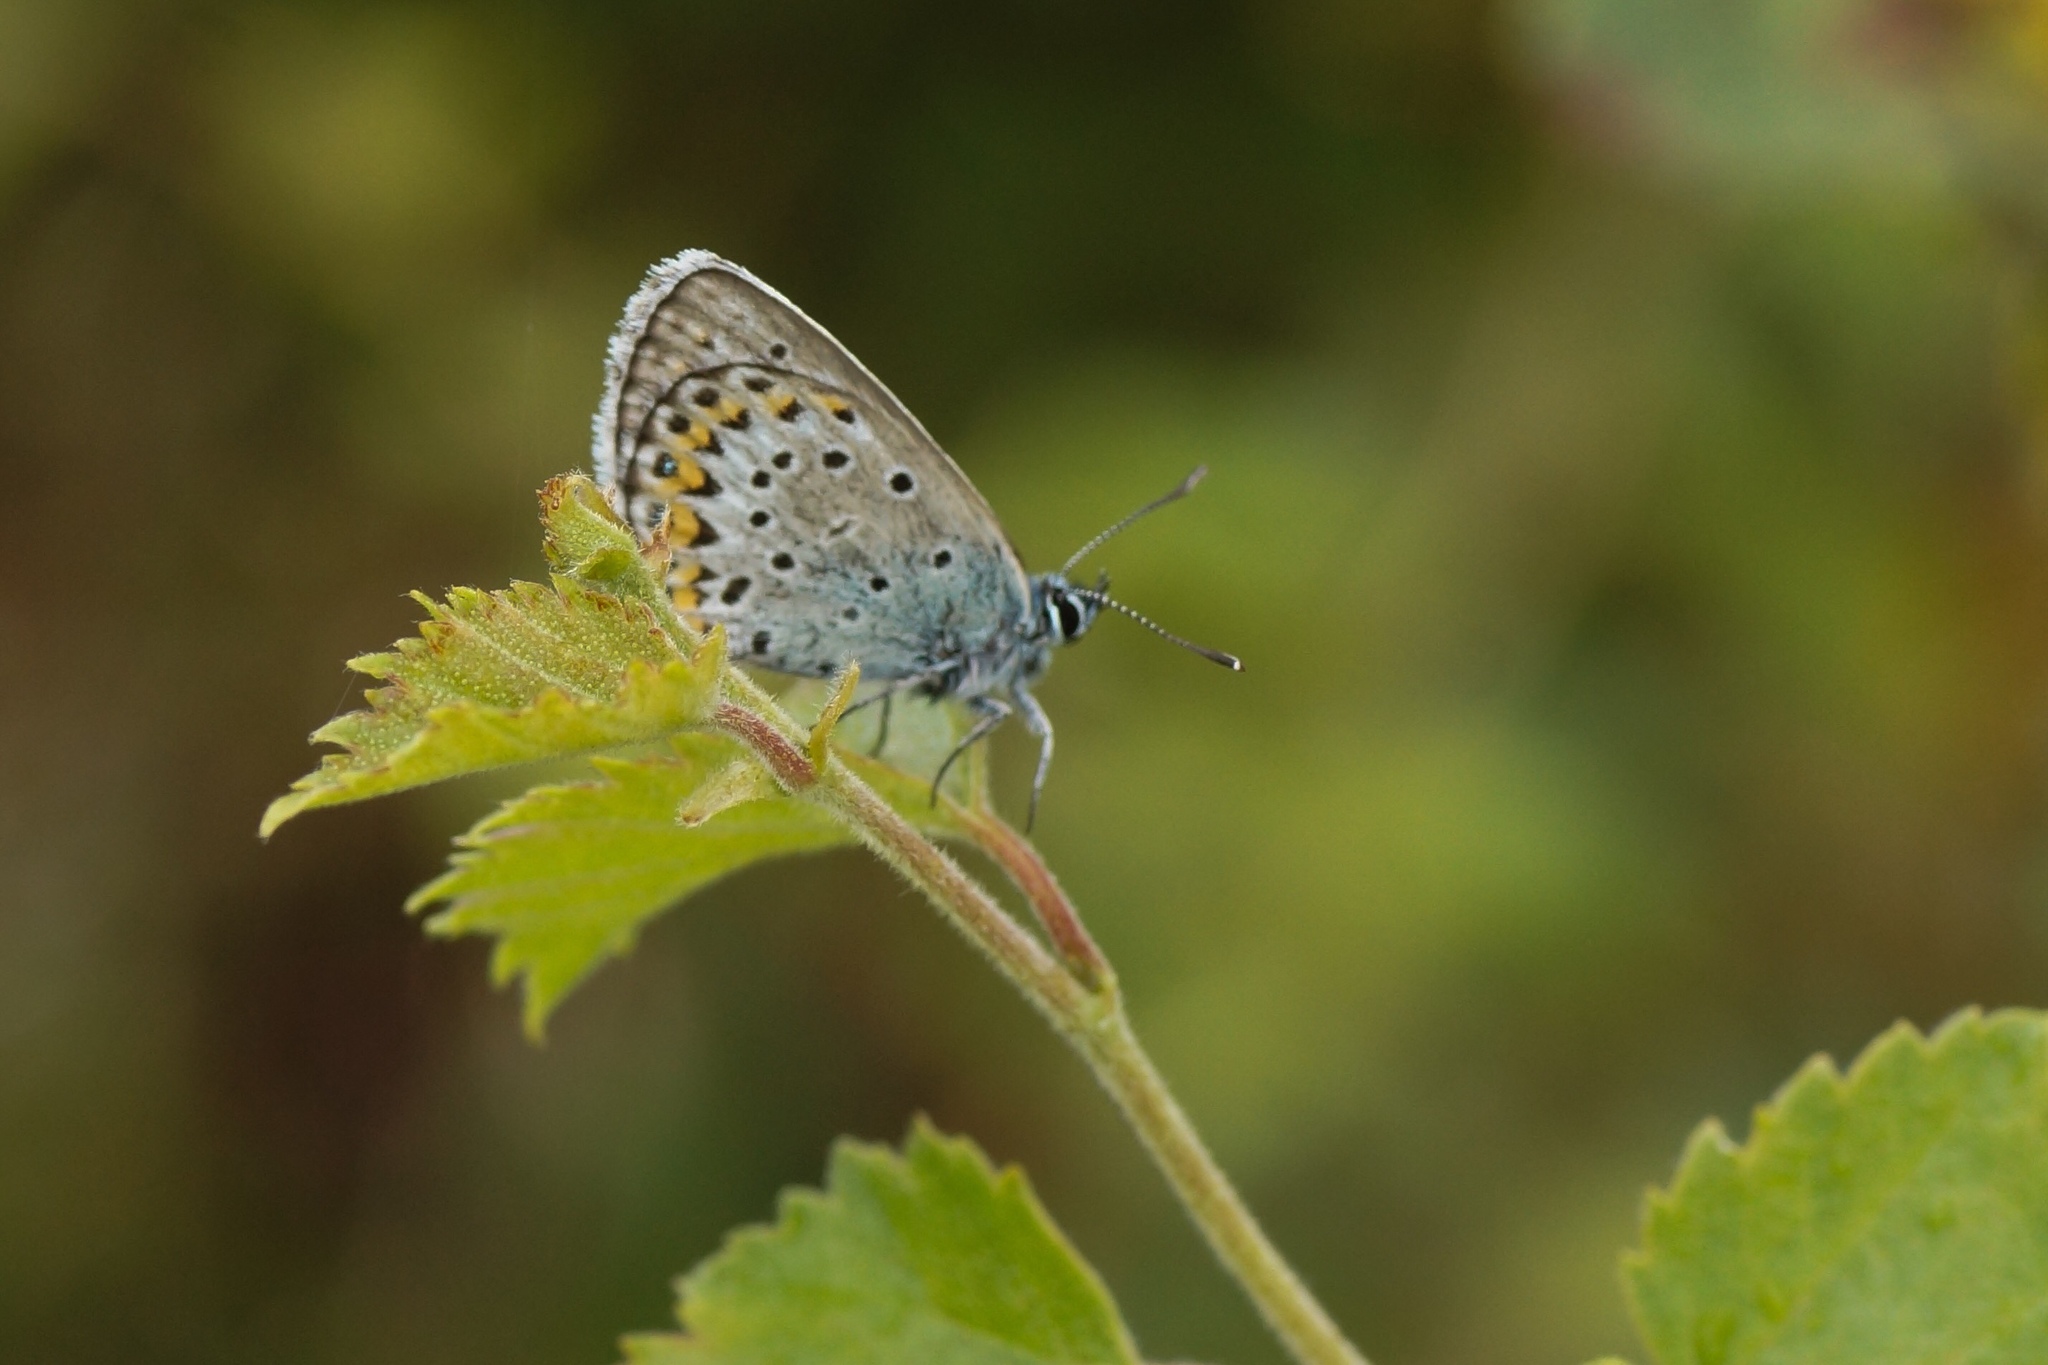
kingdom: Animalia
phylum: Arthropoda
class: Insecta
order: Lepidoptera
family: Lycaenidae
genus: Lycaeides
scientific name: Lycaeides idas
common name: Northern blue
